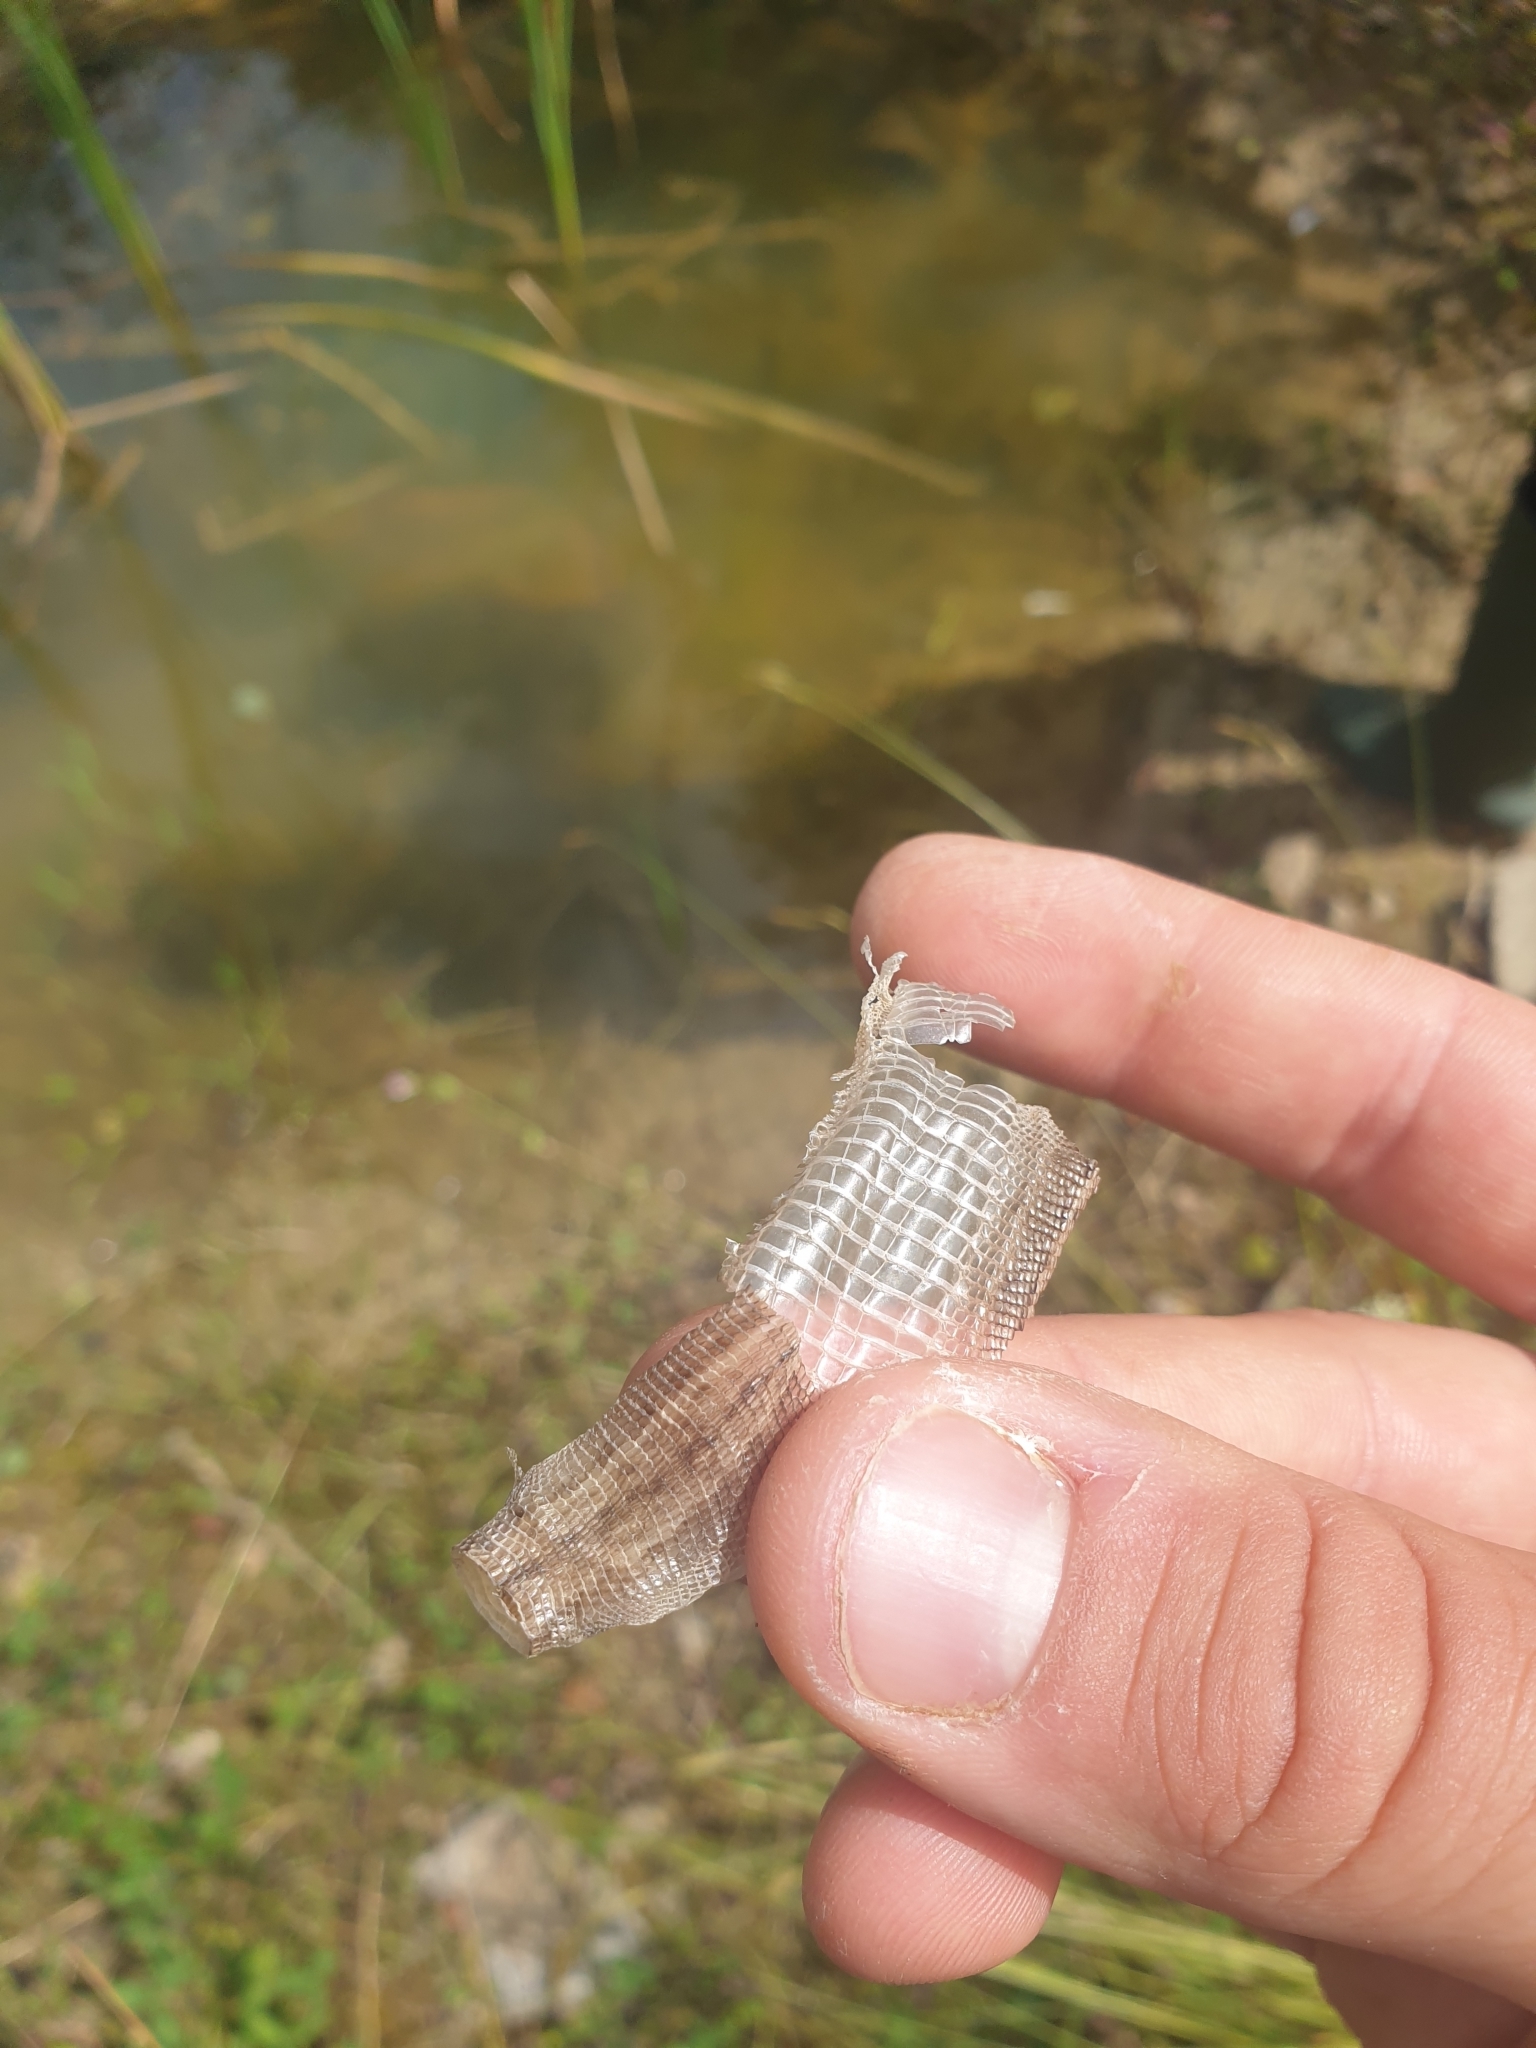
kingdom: Animalia
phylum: Chordata
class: Squamata
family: Lacertidae
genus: Zootoca
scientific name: Zootoca vivipara
